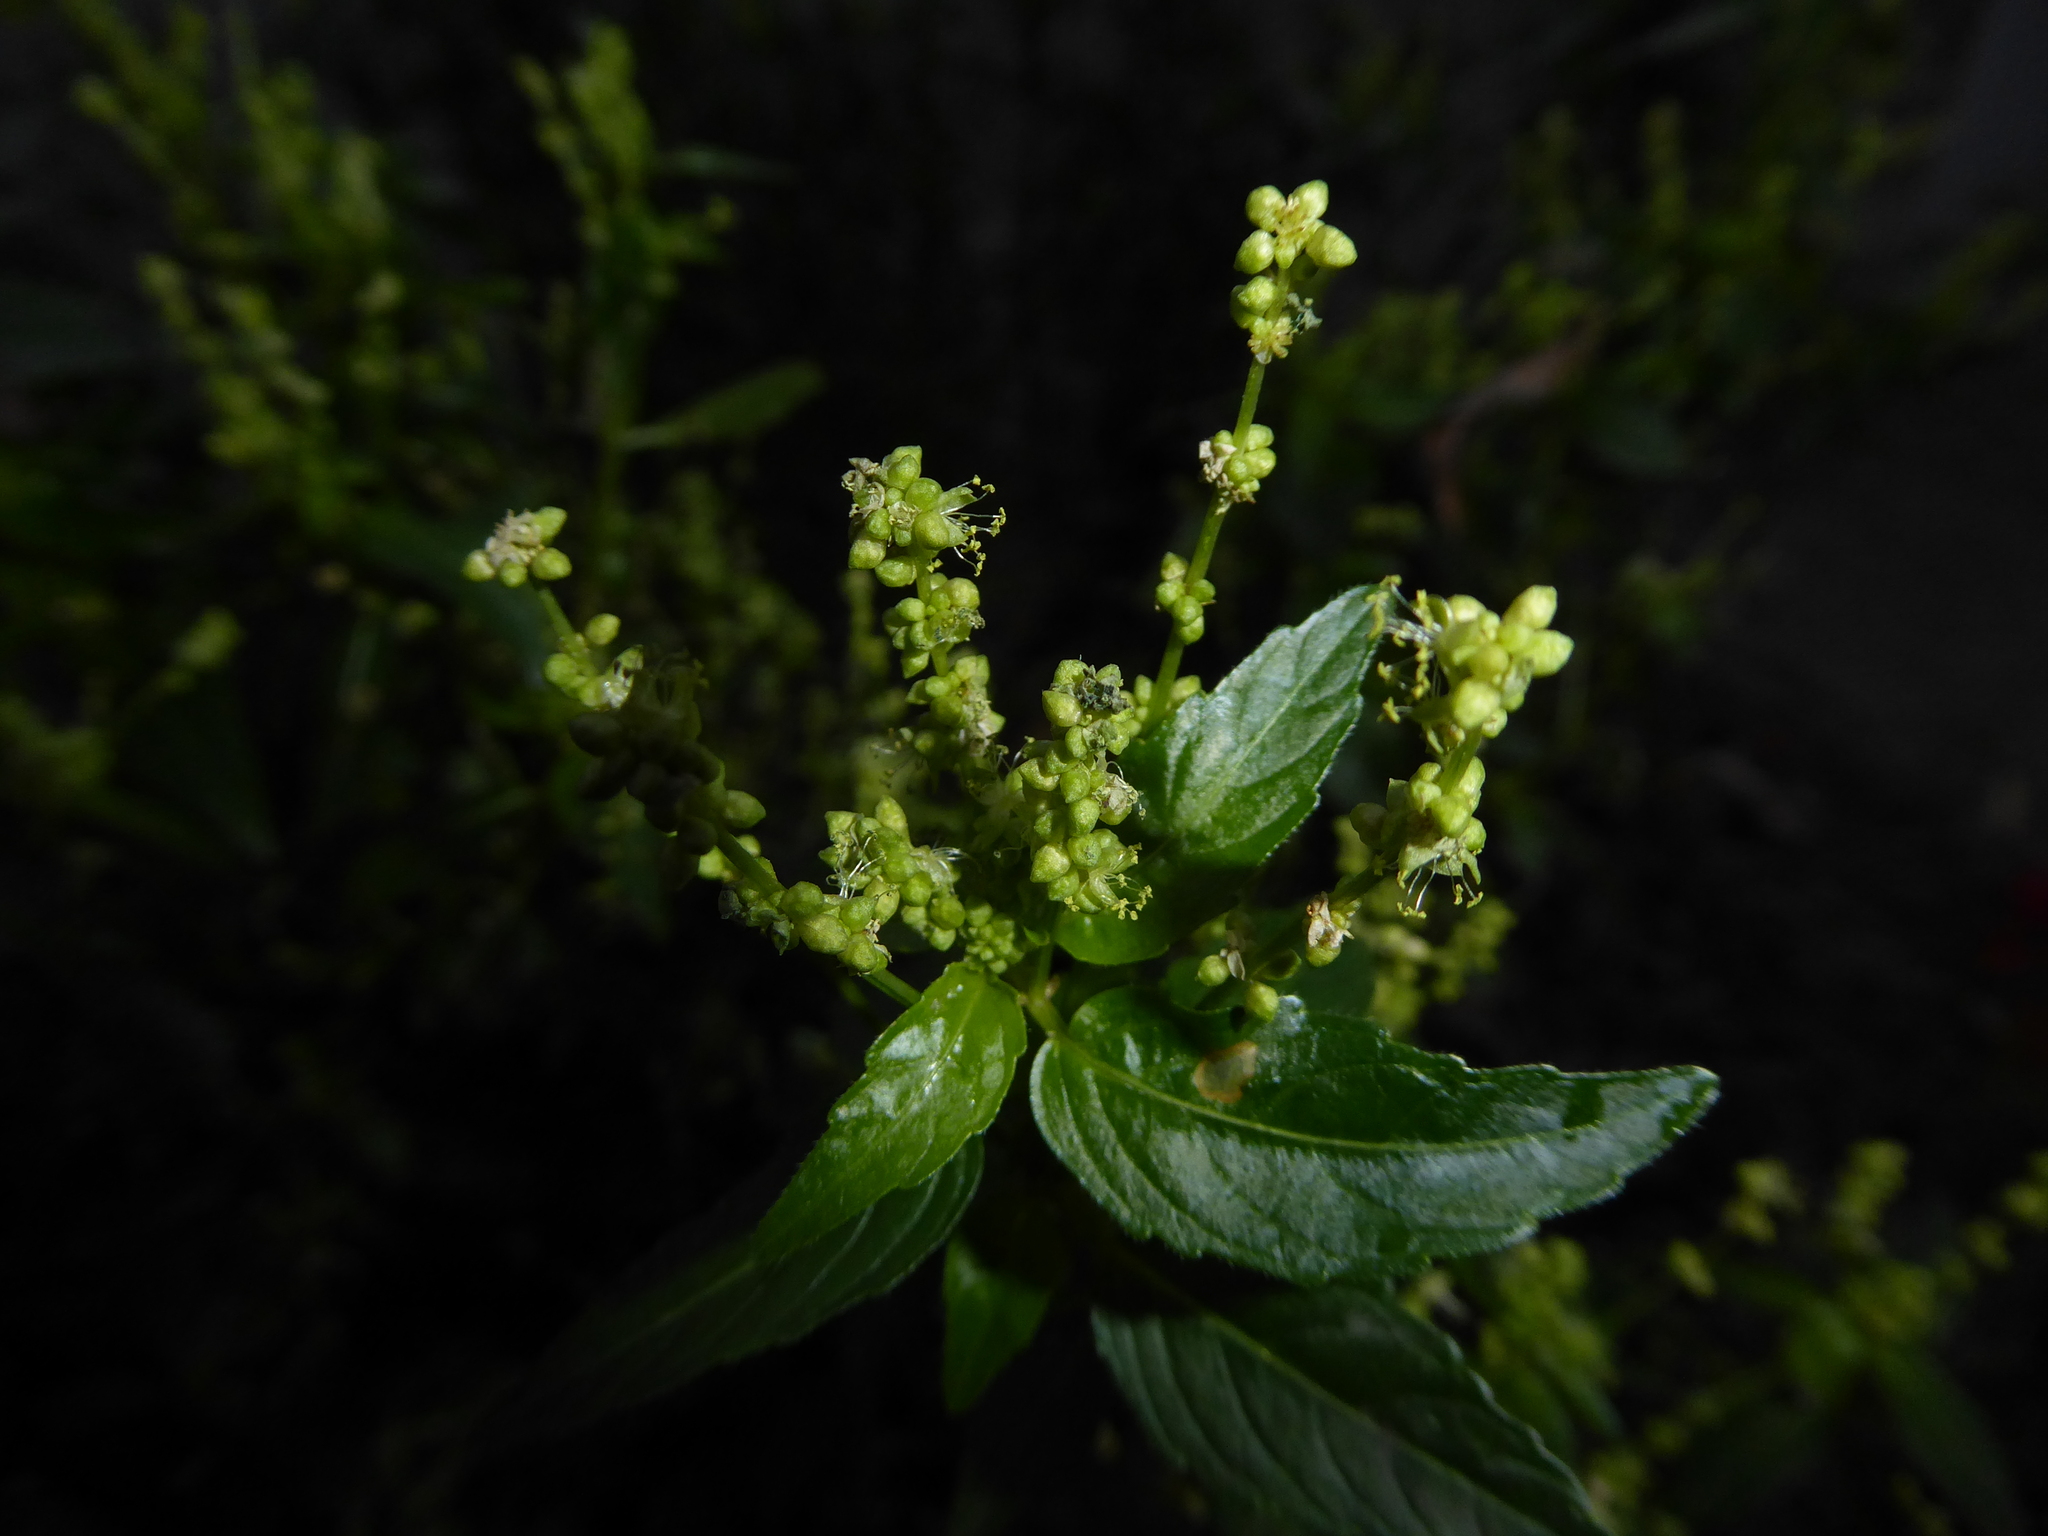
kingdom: Plantae
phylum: Tracheophyta
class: Magnoliopsida
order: Malpighiales
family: Euphorbiaceae
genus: Mercurialis
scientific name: Mercurialis annua
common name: Annual mercury
